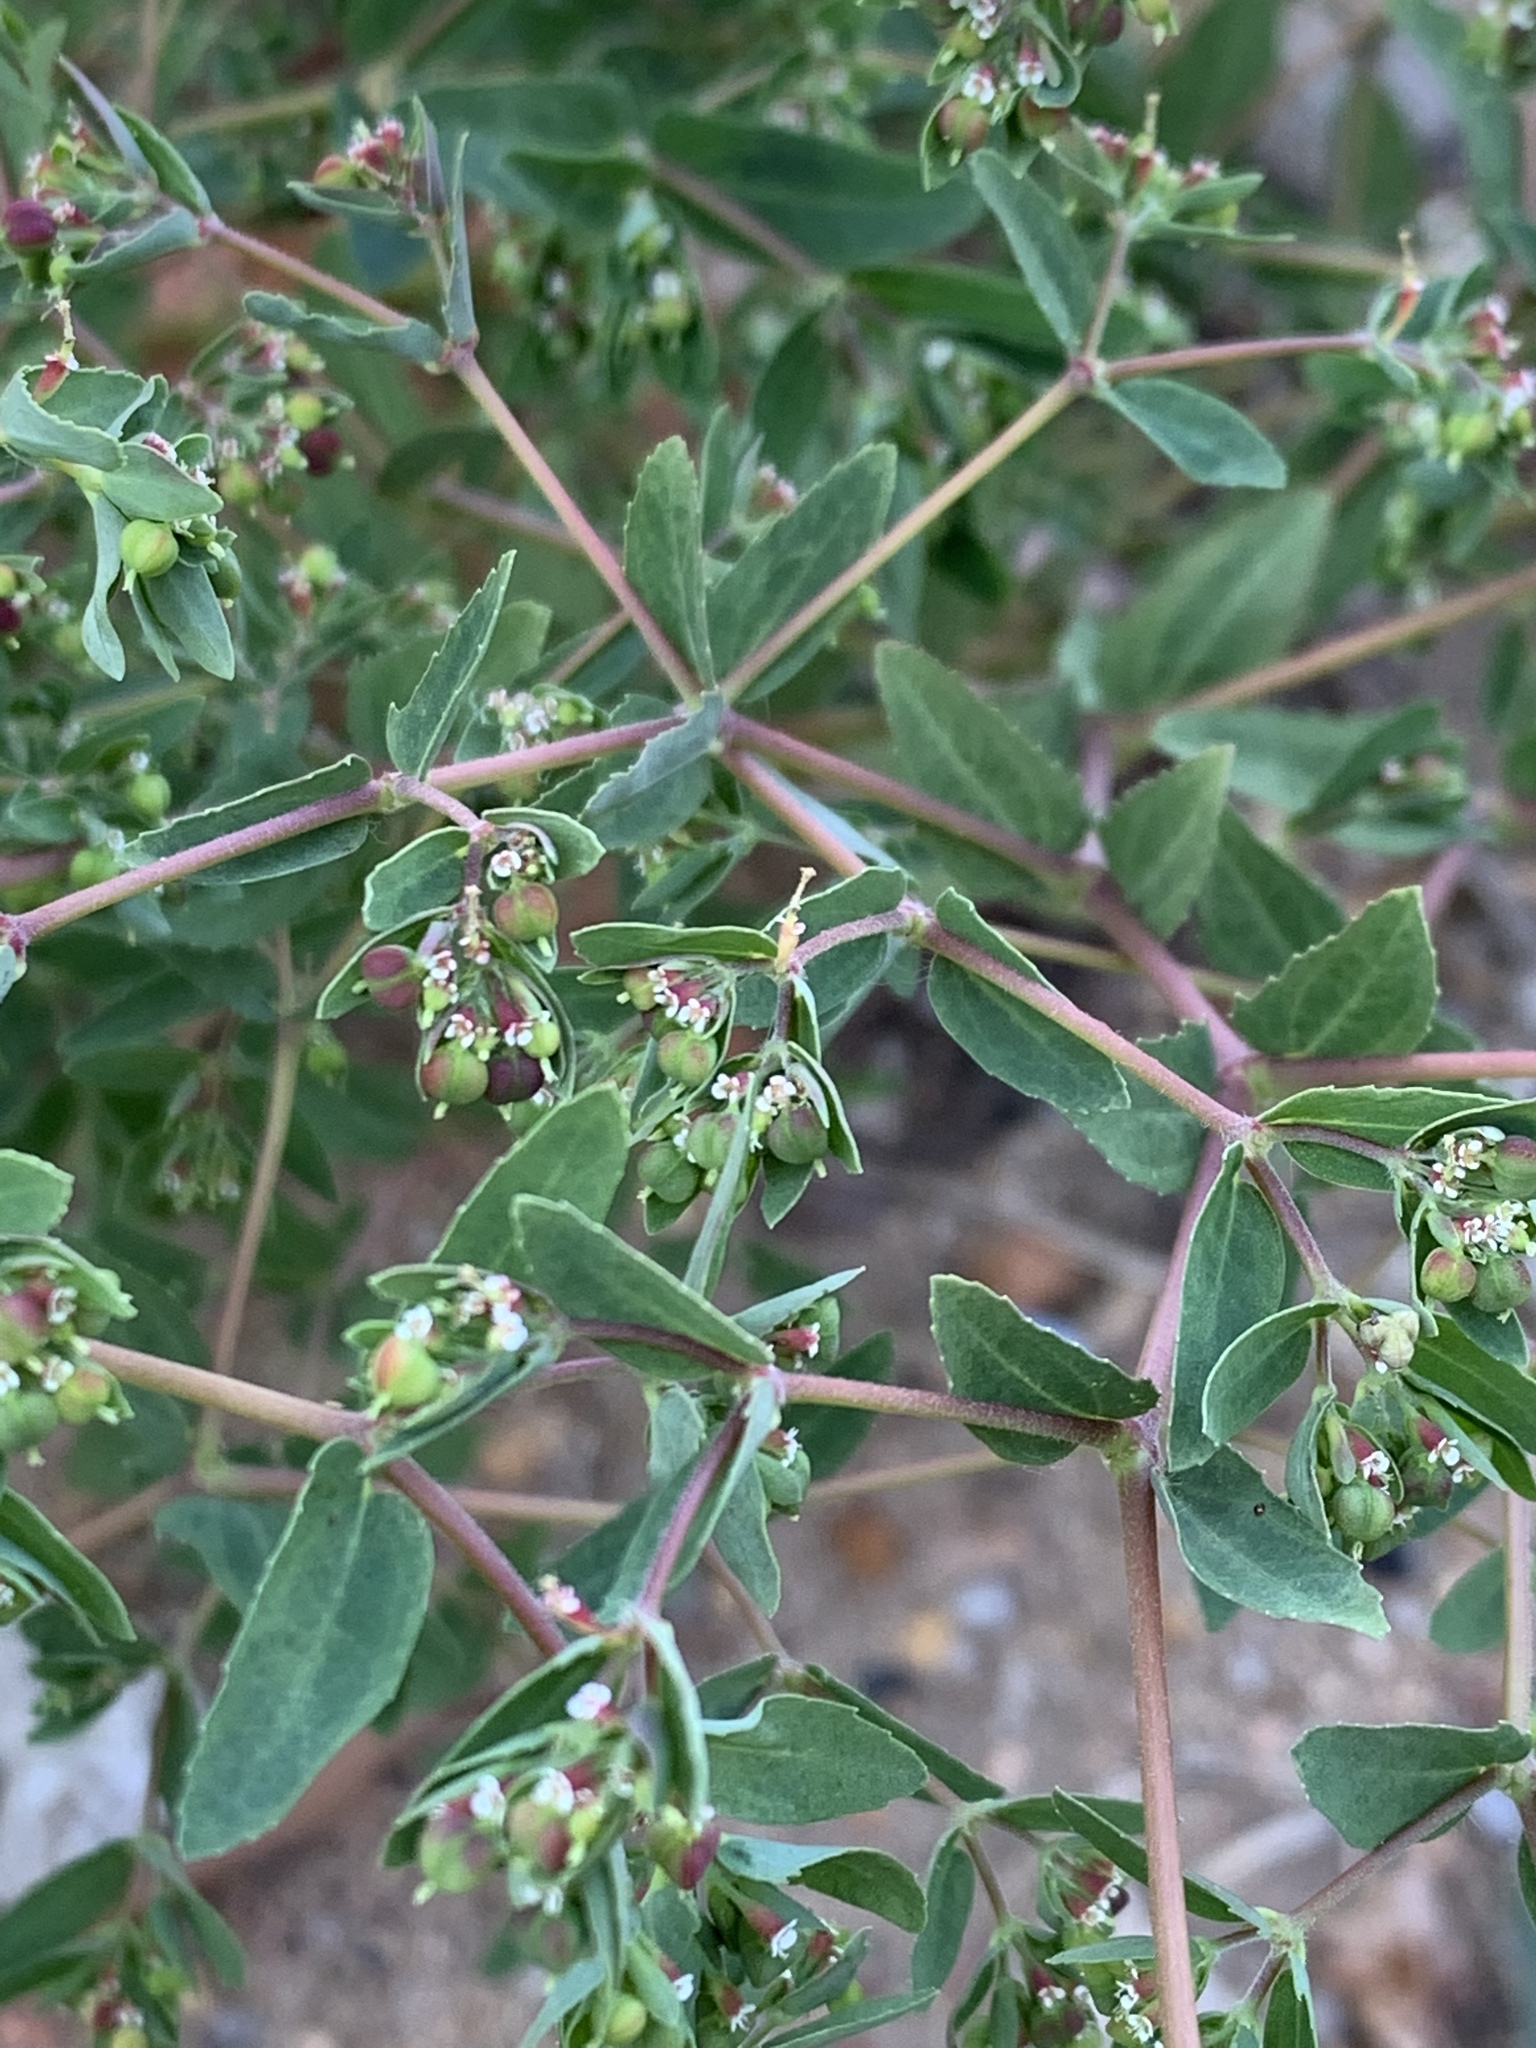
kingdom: Plantae
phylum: Tracheophyta
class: Magnoliopsida
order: Malpighiales
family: Euphorbiaceae
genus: Euphorbia
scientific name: Euphorbia nutans
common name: Eyebane
